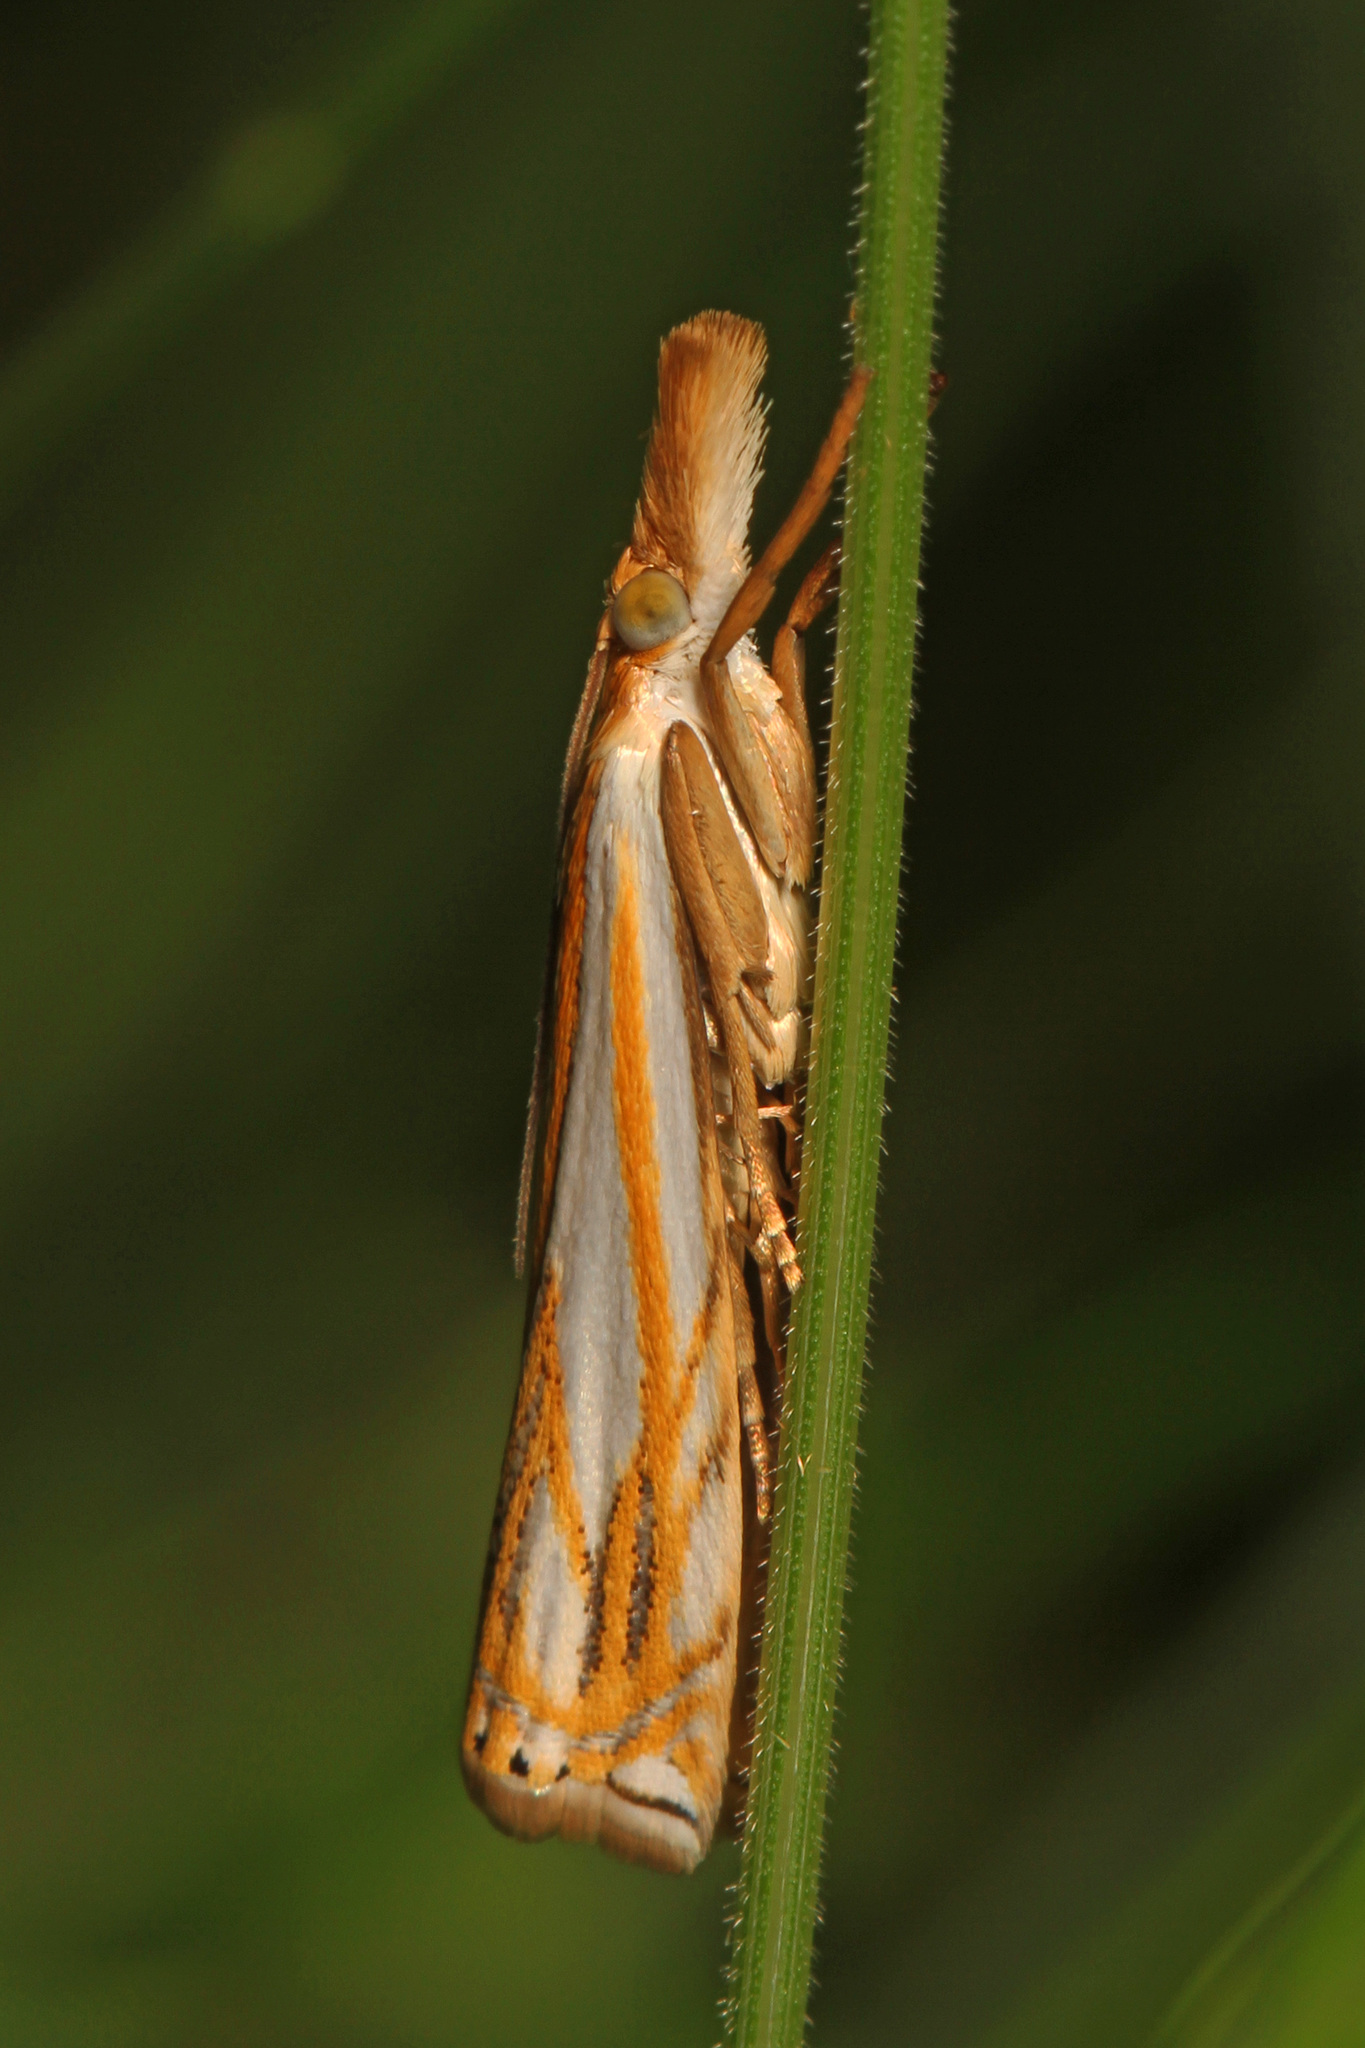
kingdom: Animalia
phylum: Arthropoda
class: Insecta
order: Lepidoptera
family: Crambidae
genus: Crambus
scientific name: Crambus saltuellus
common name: Pasture grass-veneer
